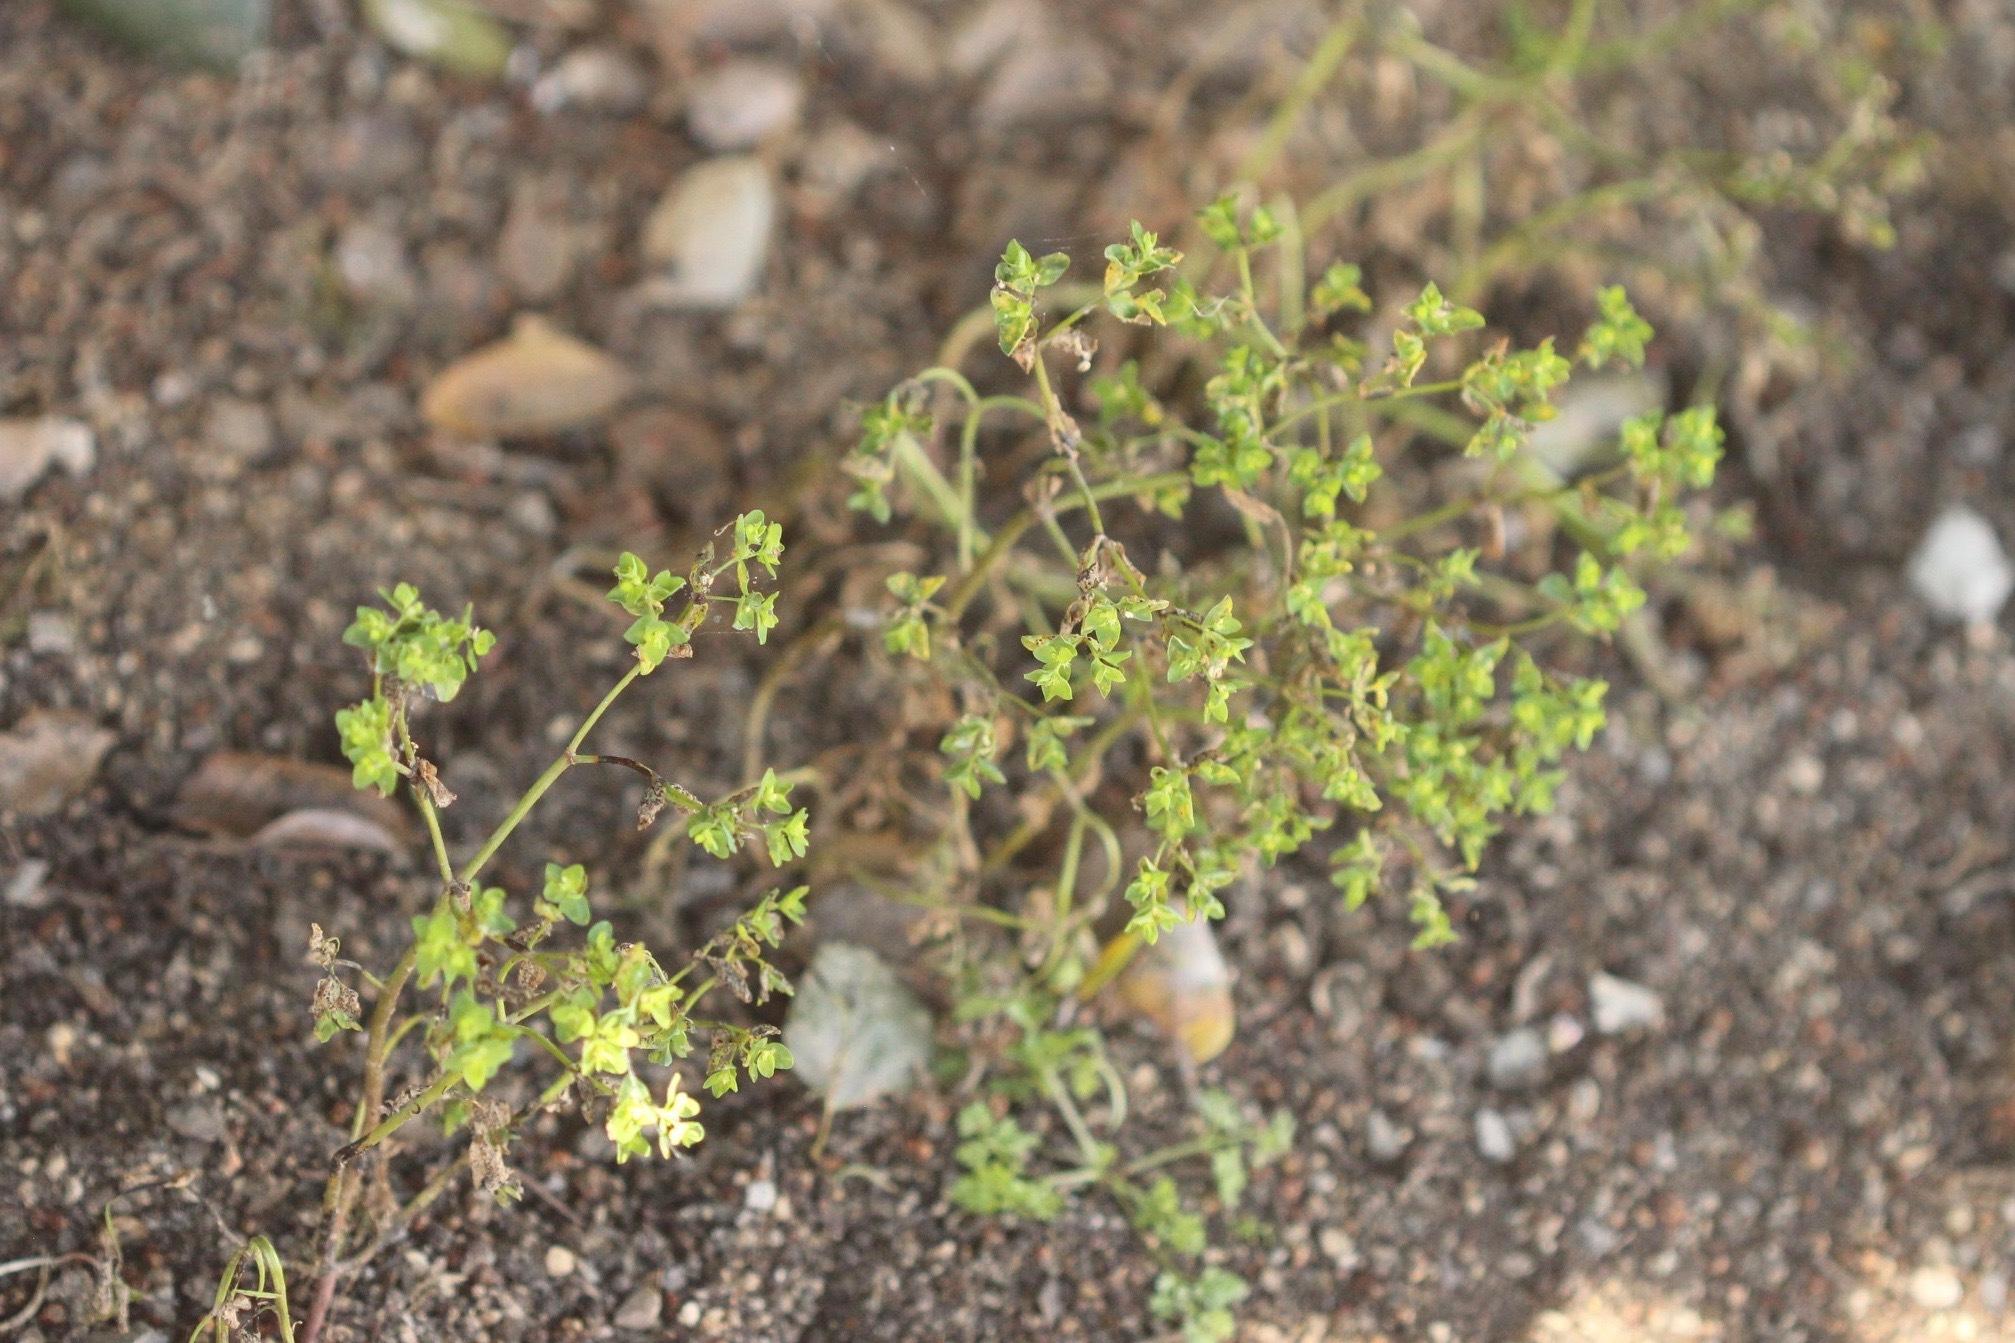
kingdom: Plantae
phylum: Tracheophyta
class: Magnoliopsida
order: Malpighiales
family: Euphorbiaceae
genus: Euphorbia
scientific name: Euphorbia peplus
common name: Petty spurge
